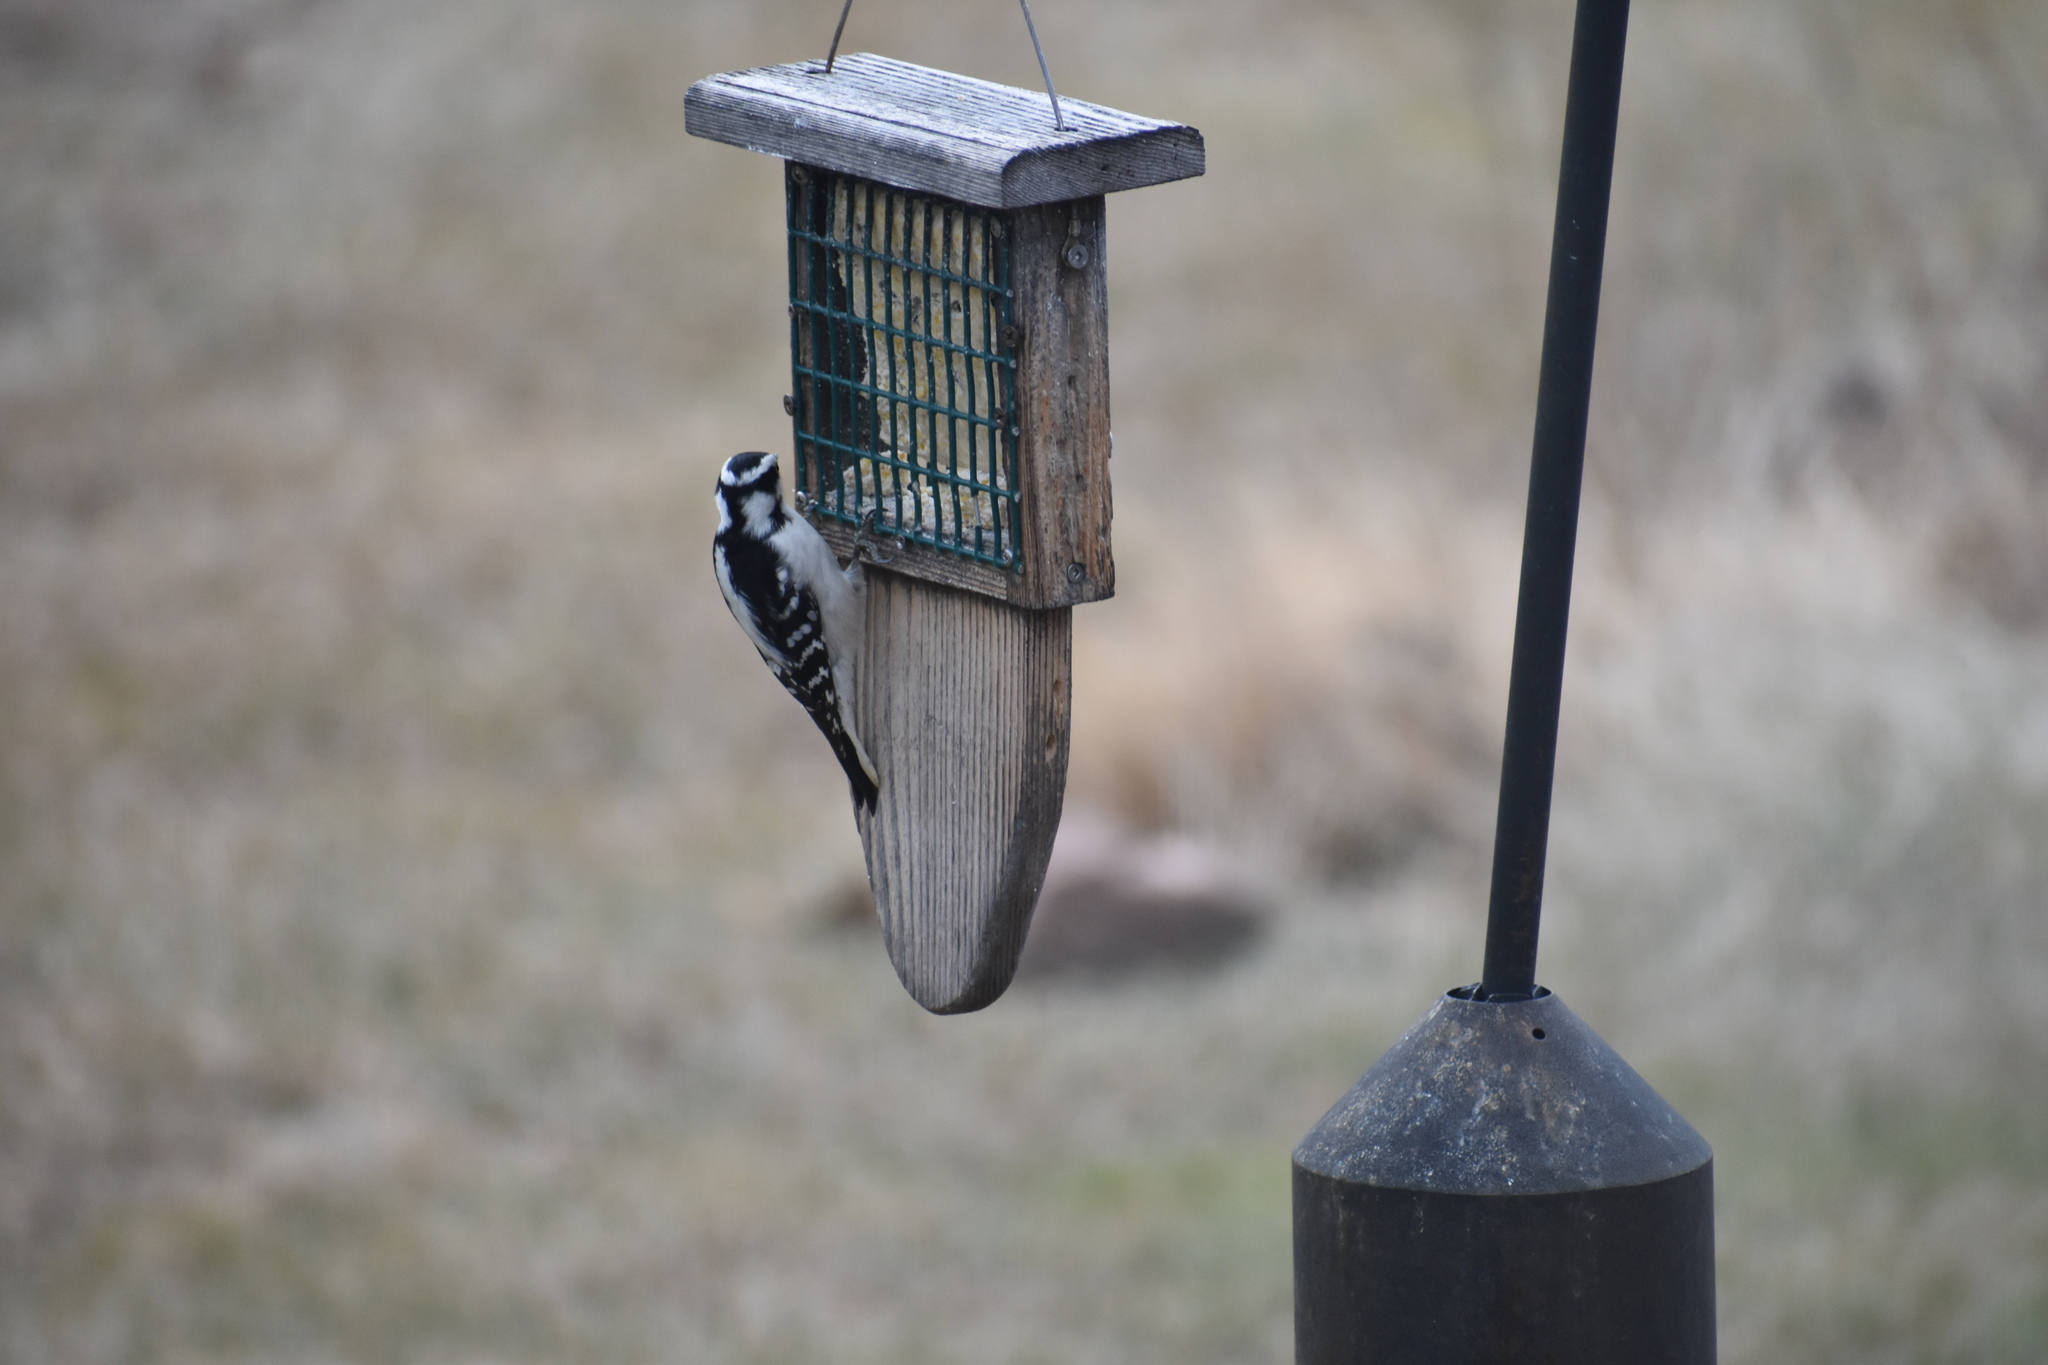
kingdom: Animalia
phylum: Chordata
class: Aves
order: Piciformes
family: Picidae
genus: Dryobates
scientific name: Dryobates pubescens
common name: Downy woodpecker
